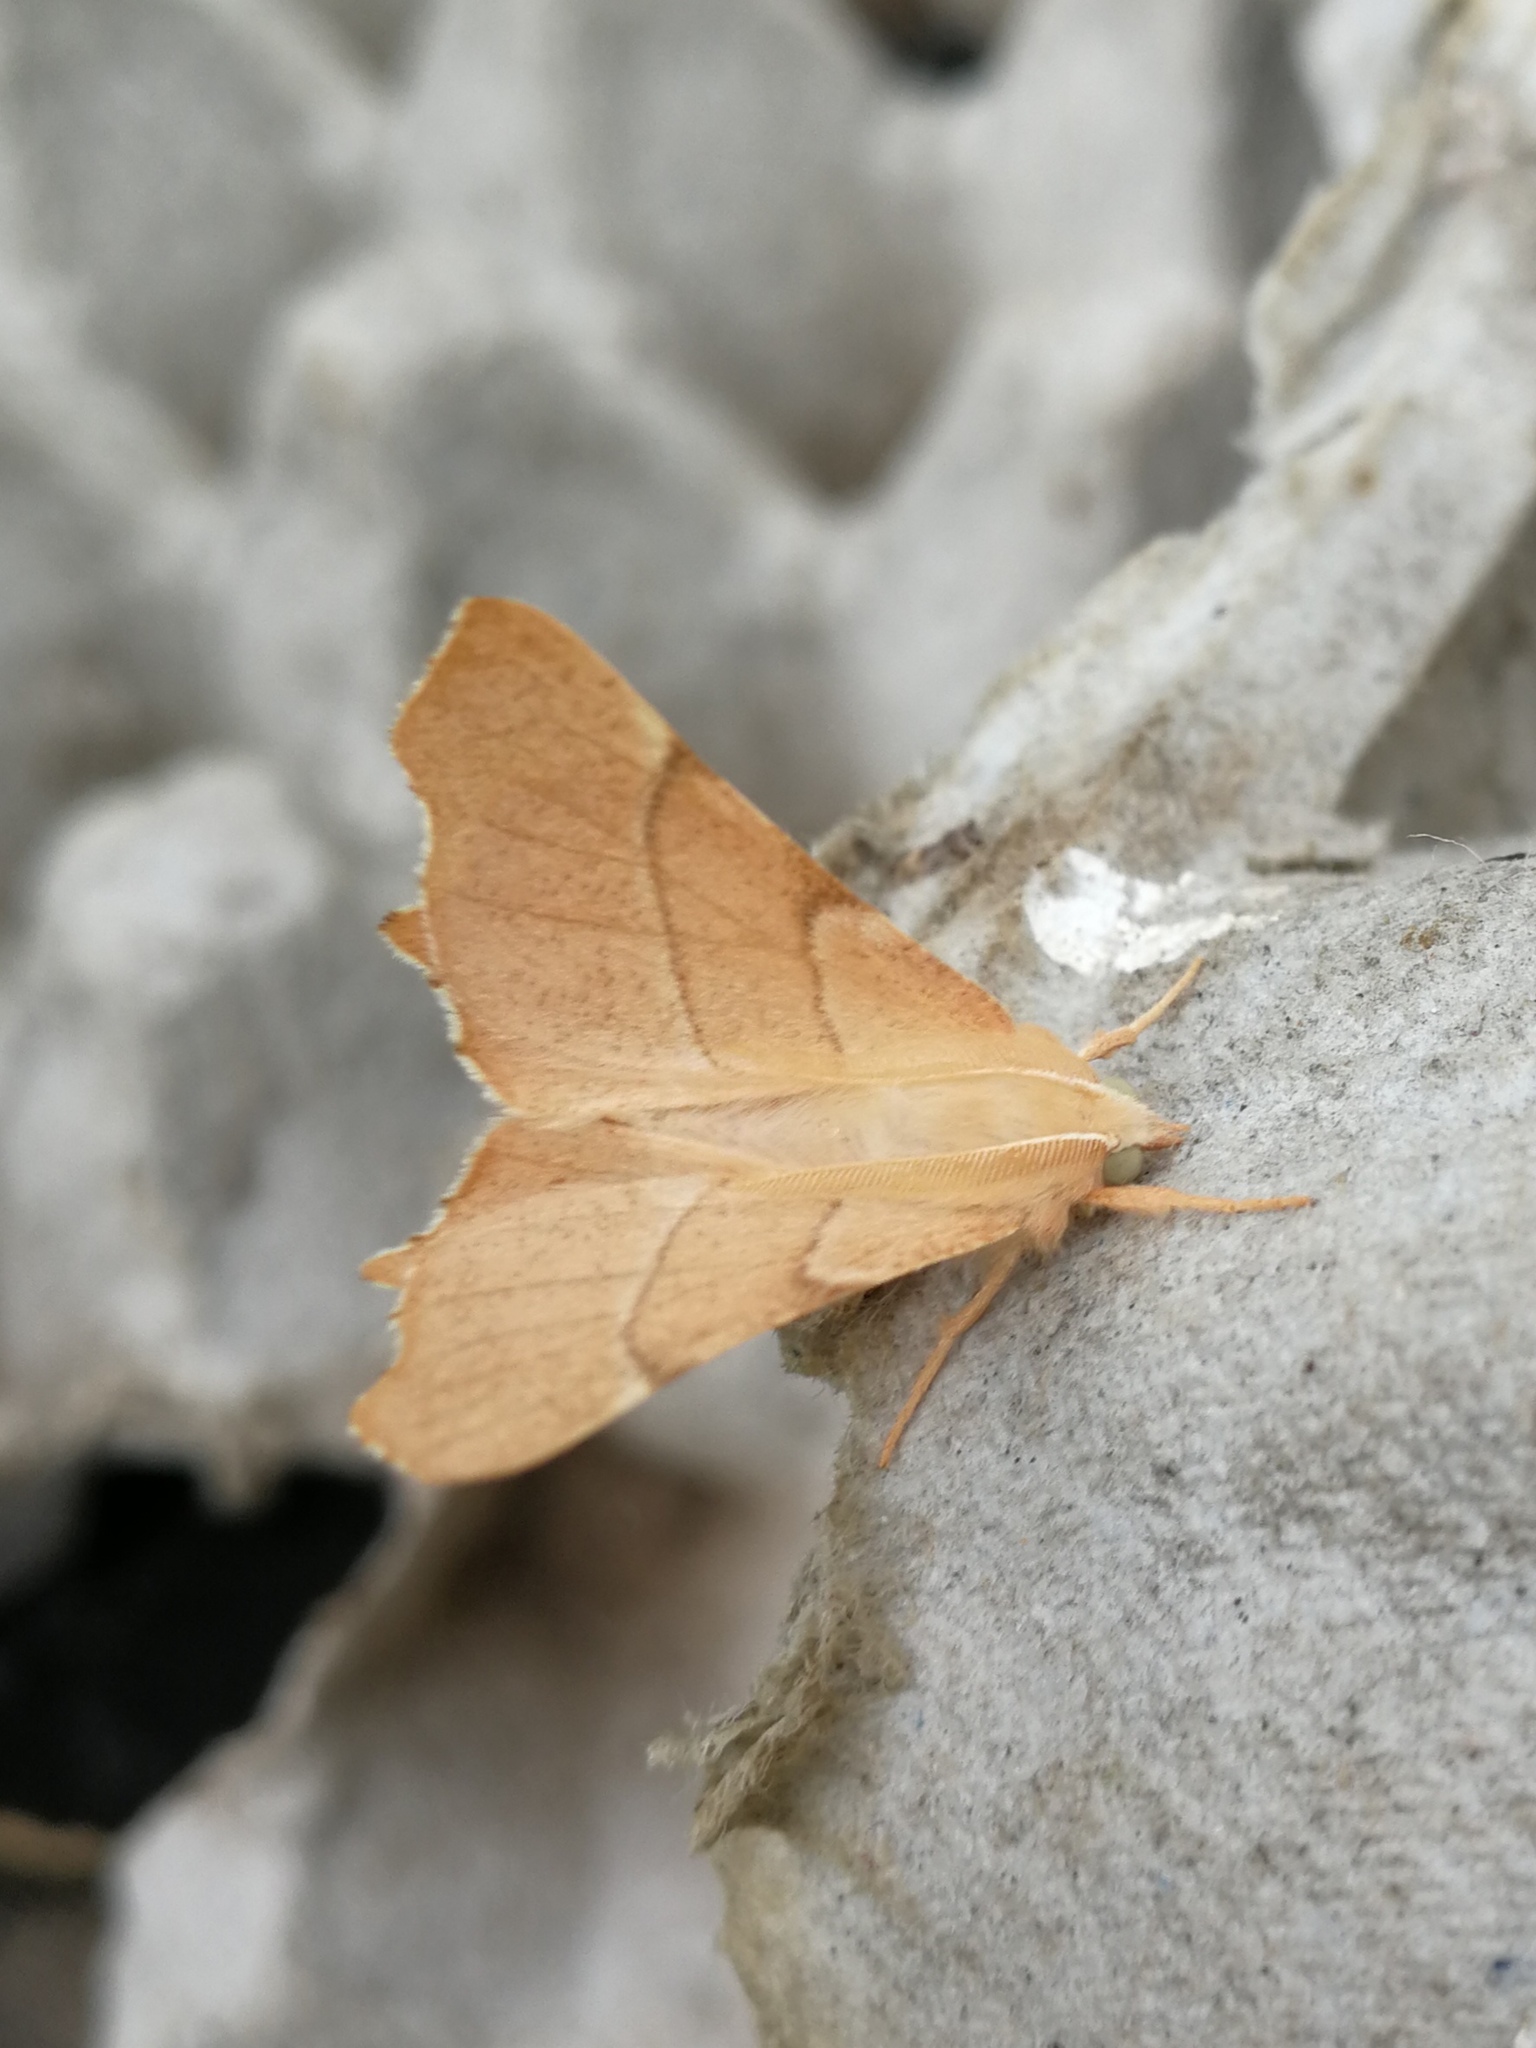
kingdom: Animalia
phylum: Arthropoda
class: Insecta
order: Lepidoptera
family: Geometridae
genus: Ennomos
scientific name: Ennomos quercaria
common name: Clouded august thorn
